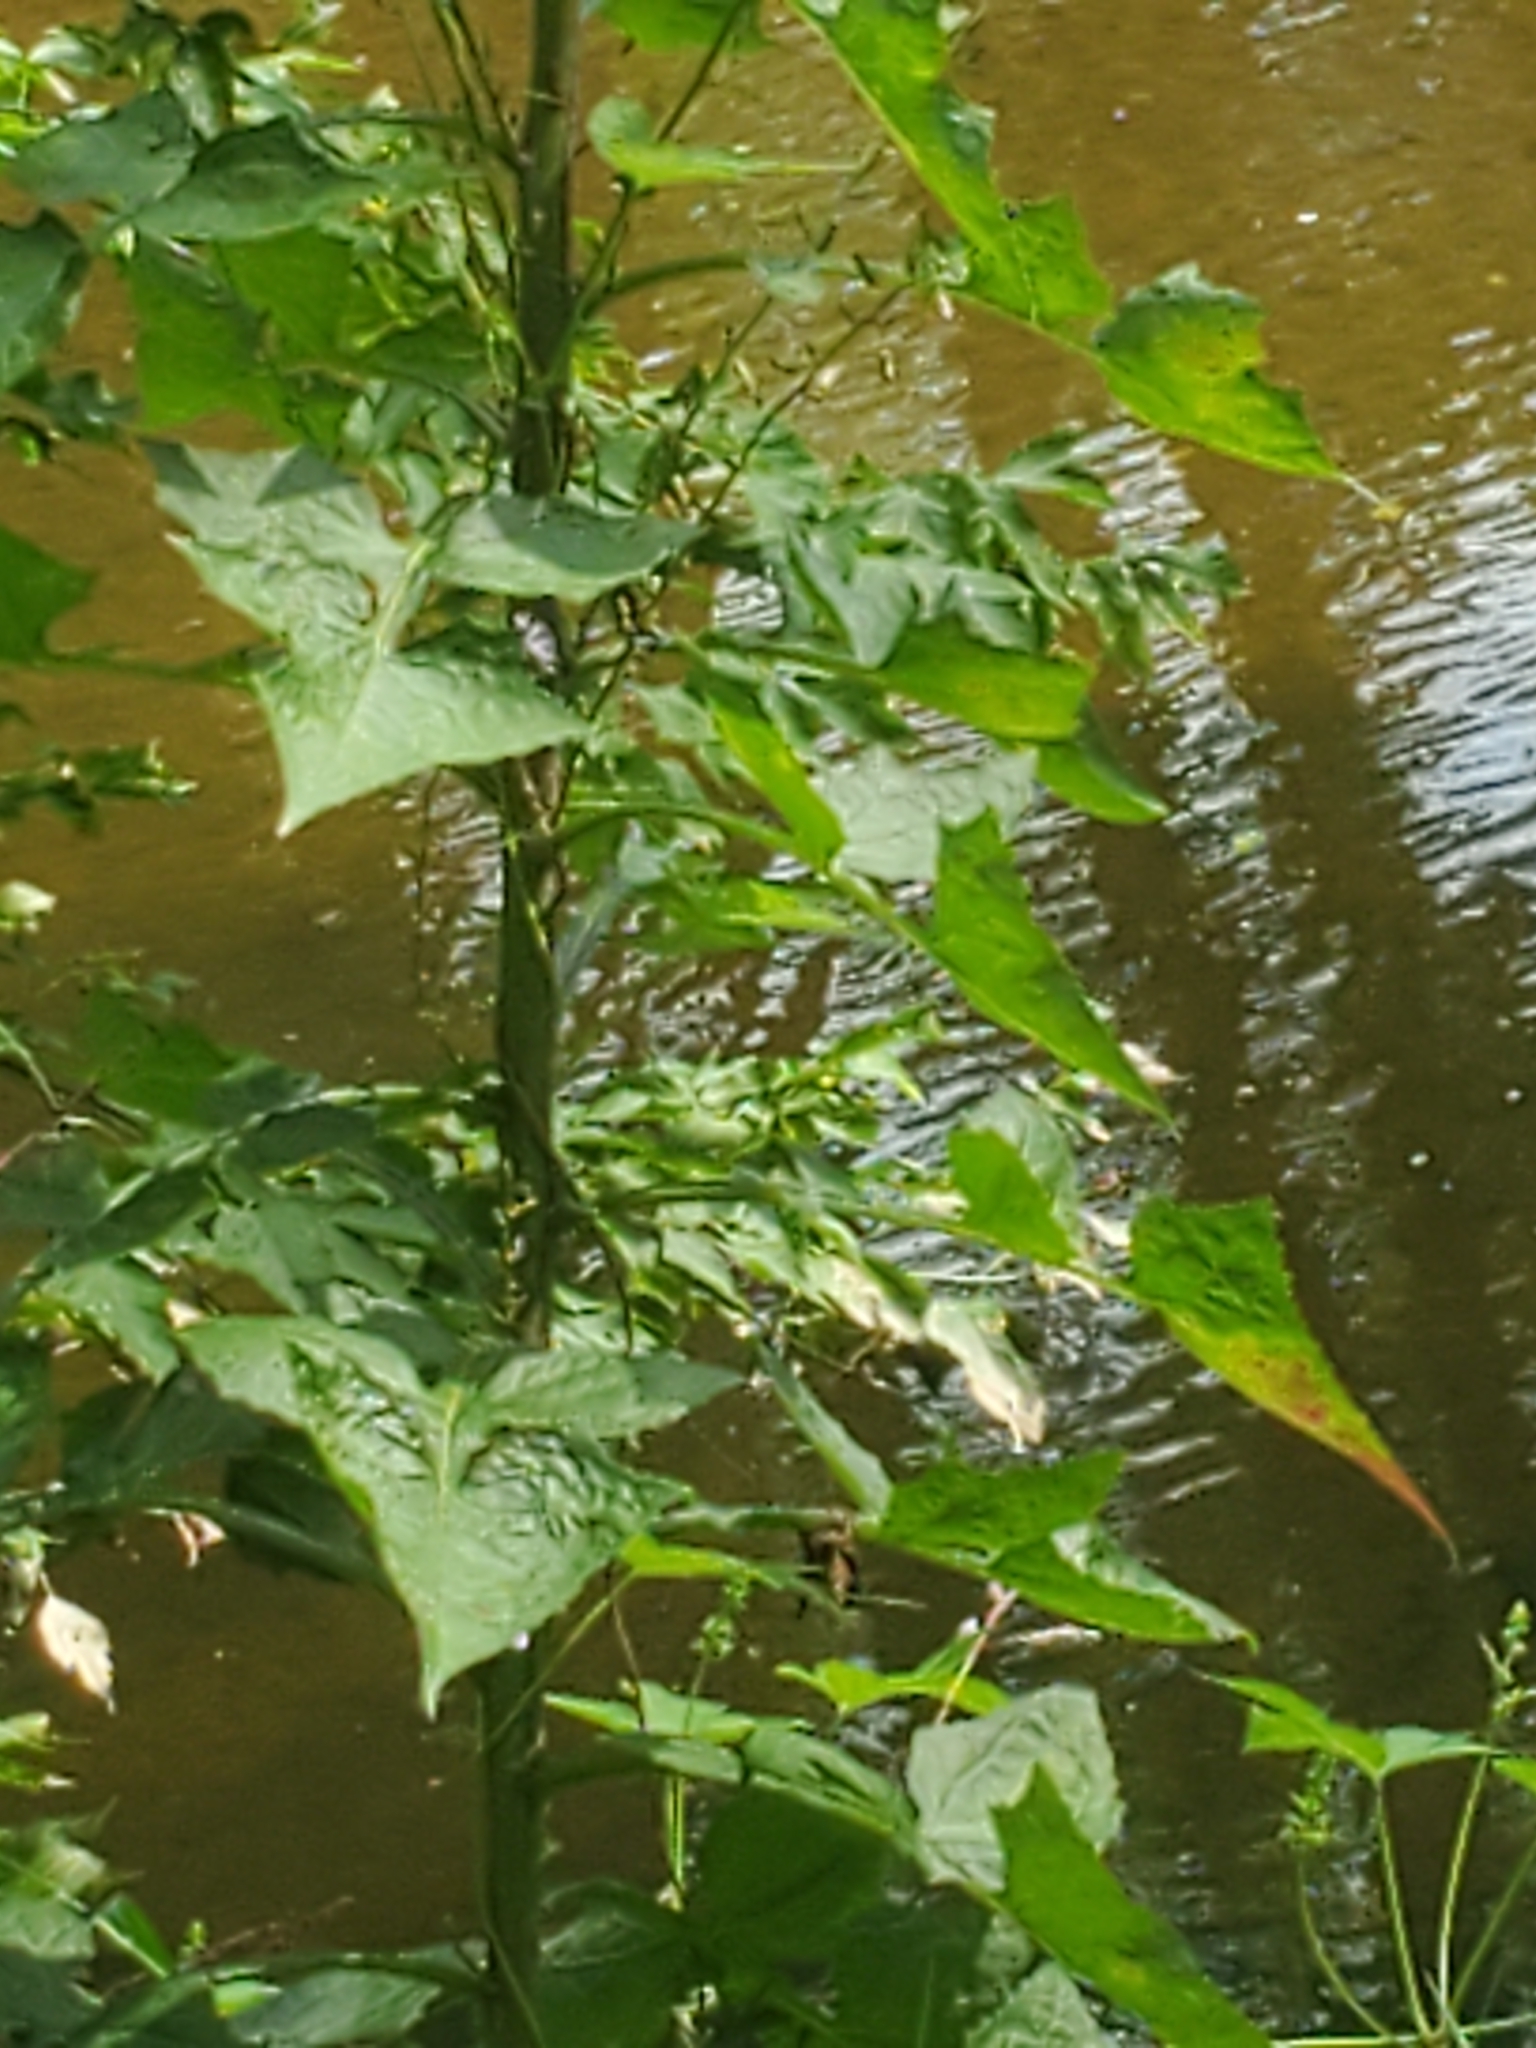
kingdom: Plantae
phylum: Tracheophyta
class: Magnoliopsida
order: Asterales
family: Asteraceae
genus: Lactuca
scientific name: Lactuca floridana
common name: Woodland lettuce
